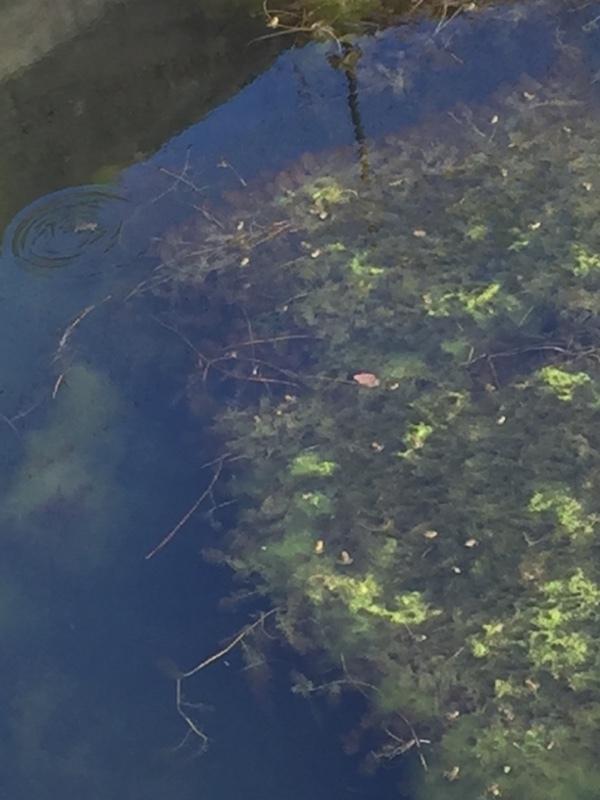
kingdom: Animalia
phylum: Chordata
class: Amphibia
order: Anura
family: Ranidae
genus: Pelophylax
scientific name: Pelophylax perezi
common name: Perez's frog
